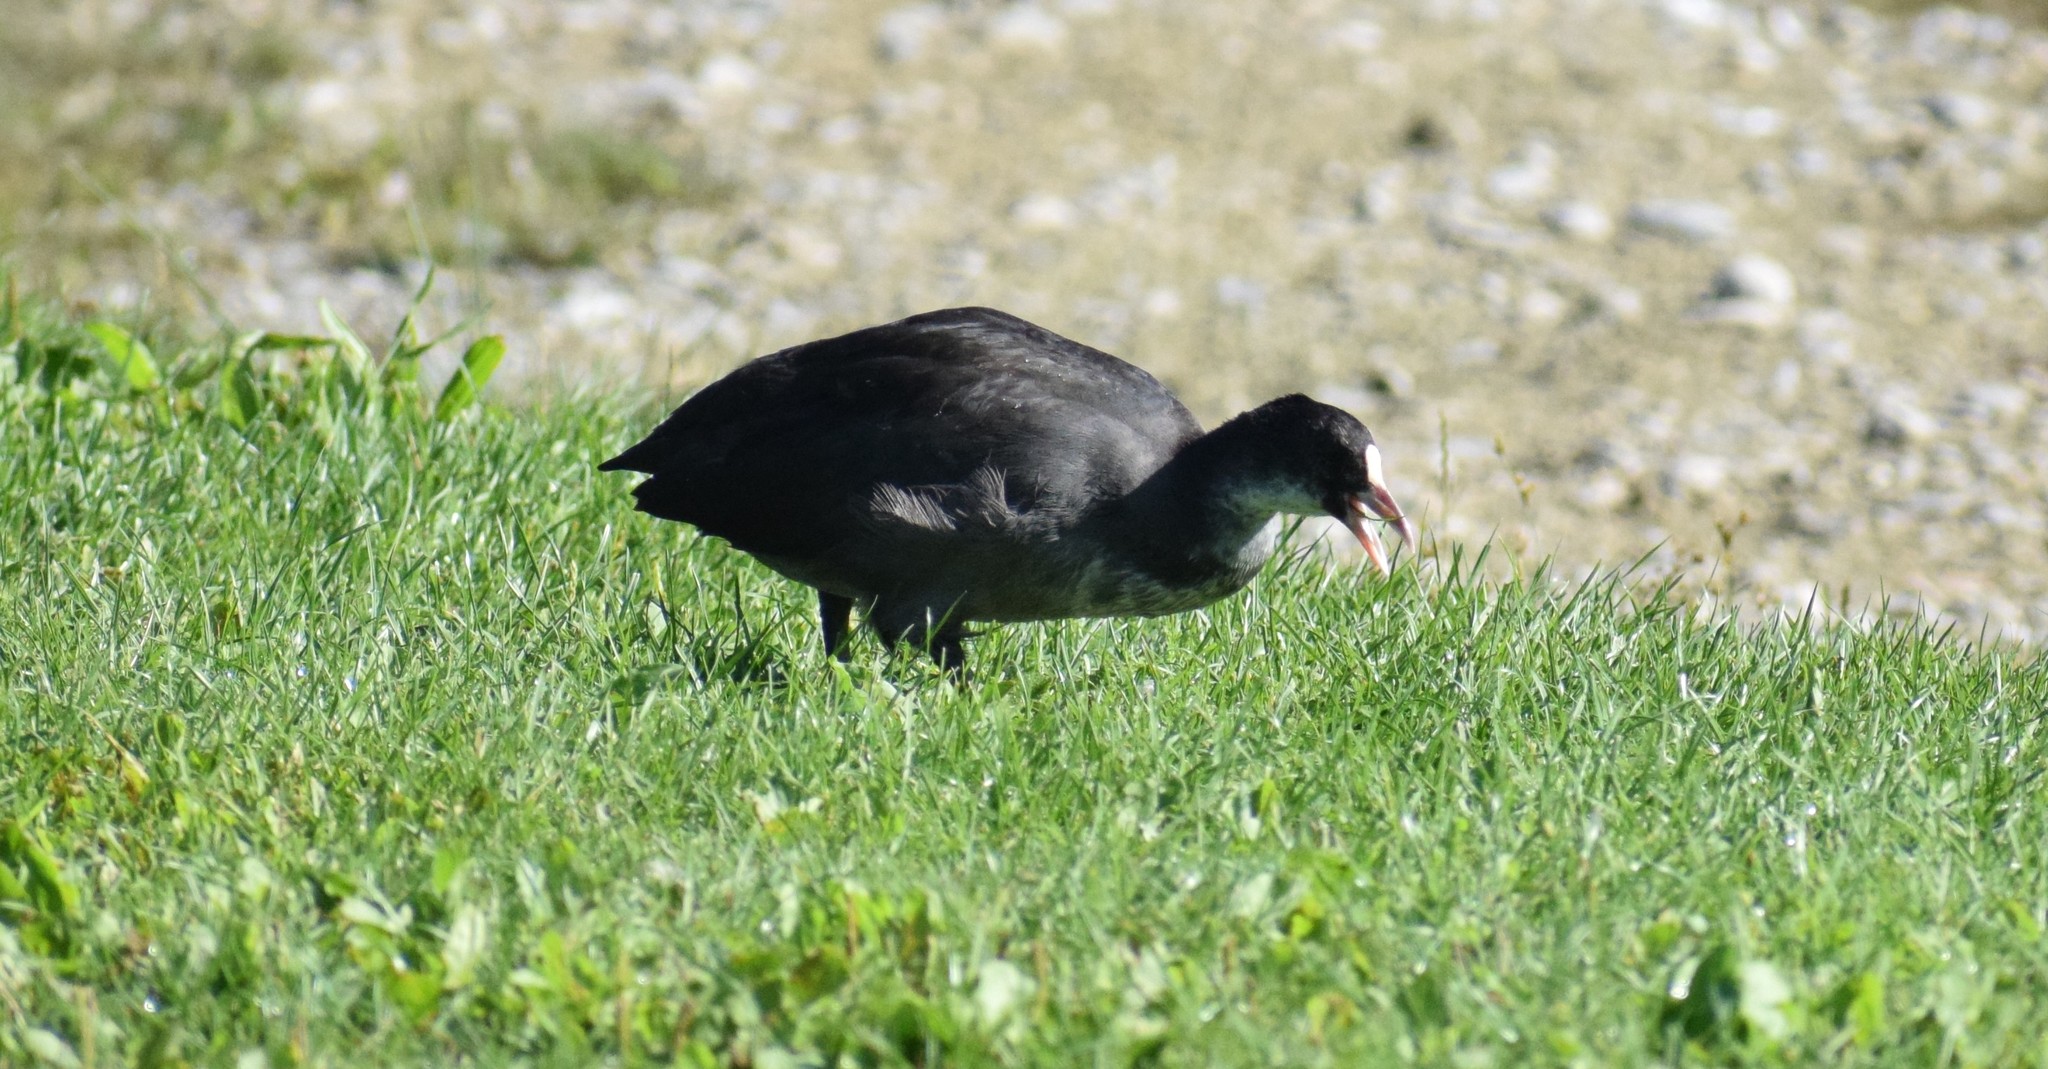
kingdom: Animalia
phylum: Chordata
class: Aves
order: Gruiformes
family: Rallidae
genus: Fulica
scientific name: Fulica atra
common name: Eurasian coot
